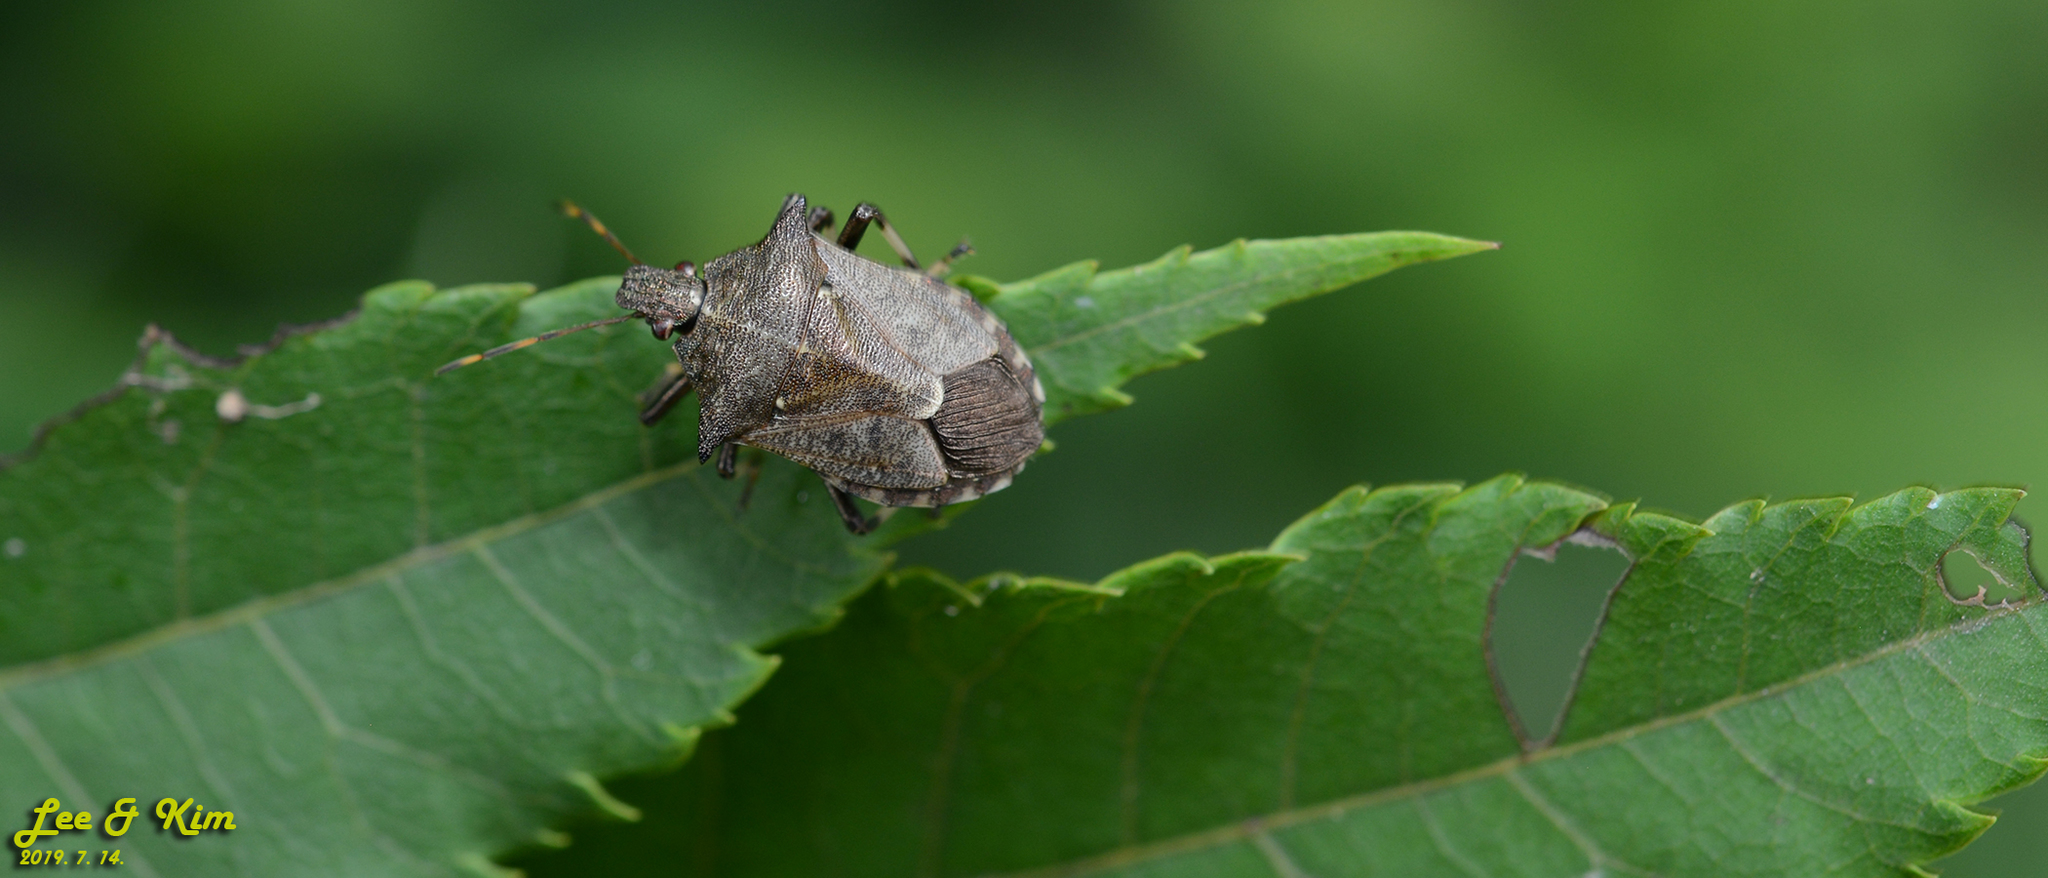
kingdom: Animalia
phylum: Arthropoda
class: Insecta
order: Hemiptera
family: Pentatomidae
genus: Picromerus
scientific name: Picromerus lewisi
